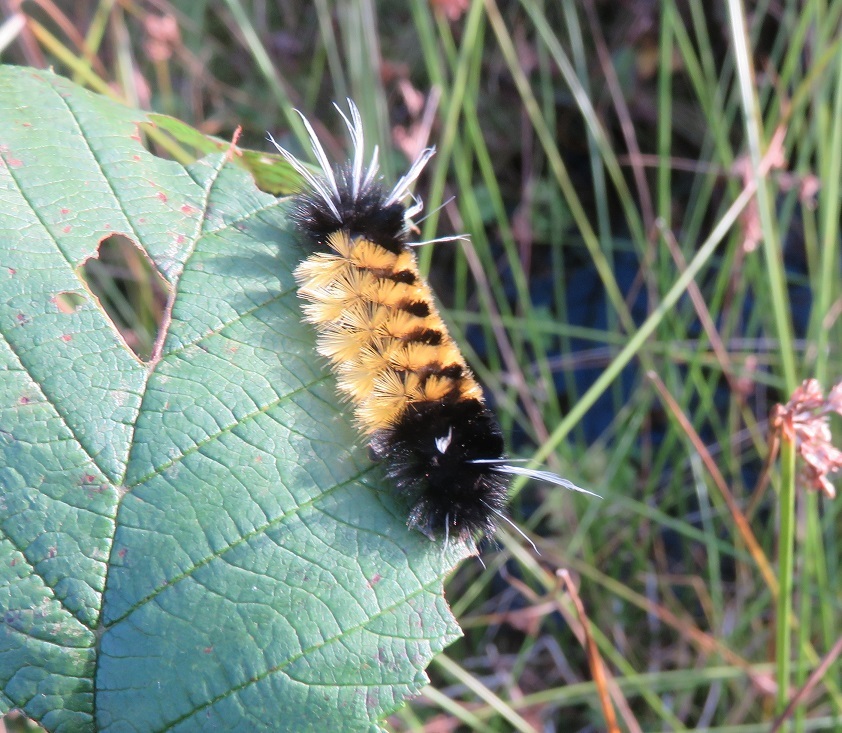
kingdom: Animalia
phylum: Arthropoda
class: Insecta
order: Lepidoptera
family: Erebidae
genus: Lophocampa
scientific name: Lophocampa maculata
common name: Spotted tussock moth
